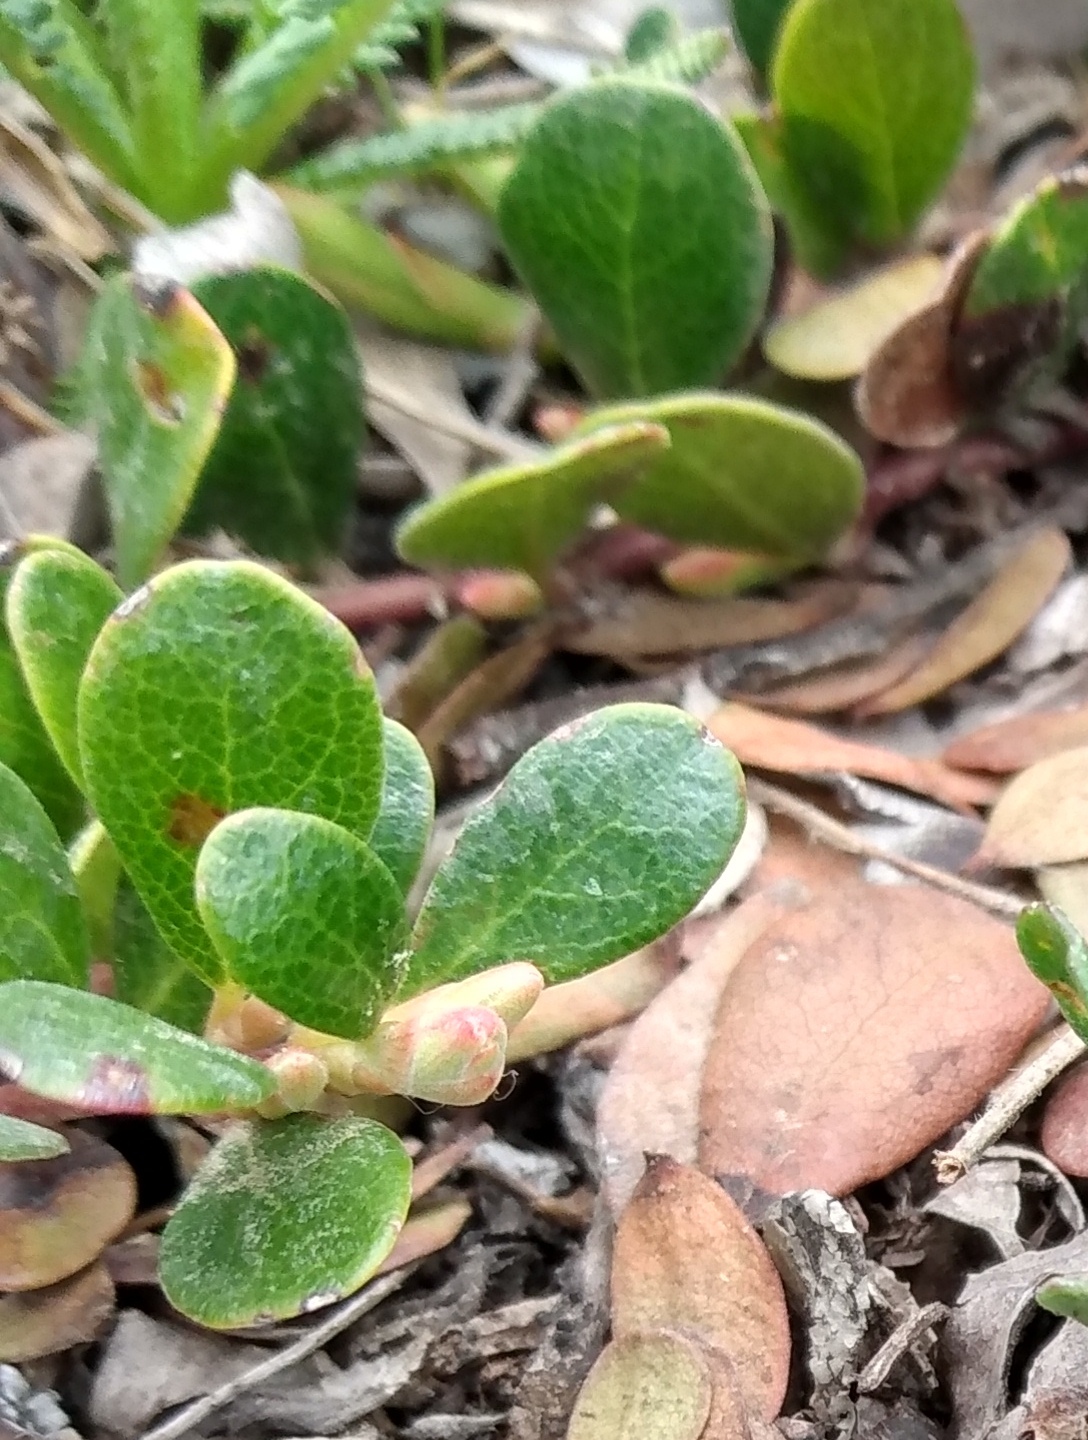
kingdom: Plantae
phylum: Tracheophyta
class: Magnoliopsida
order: Ericales
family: Ericaceae
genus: Arctostaphylos
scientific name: Arctostaphylos uva-ursi
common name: Bearberry
